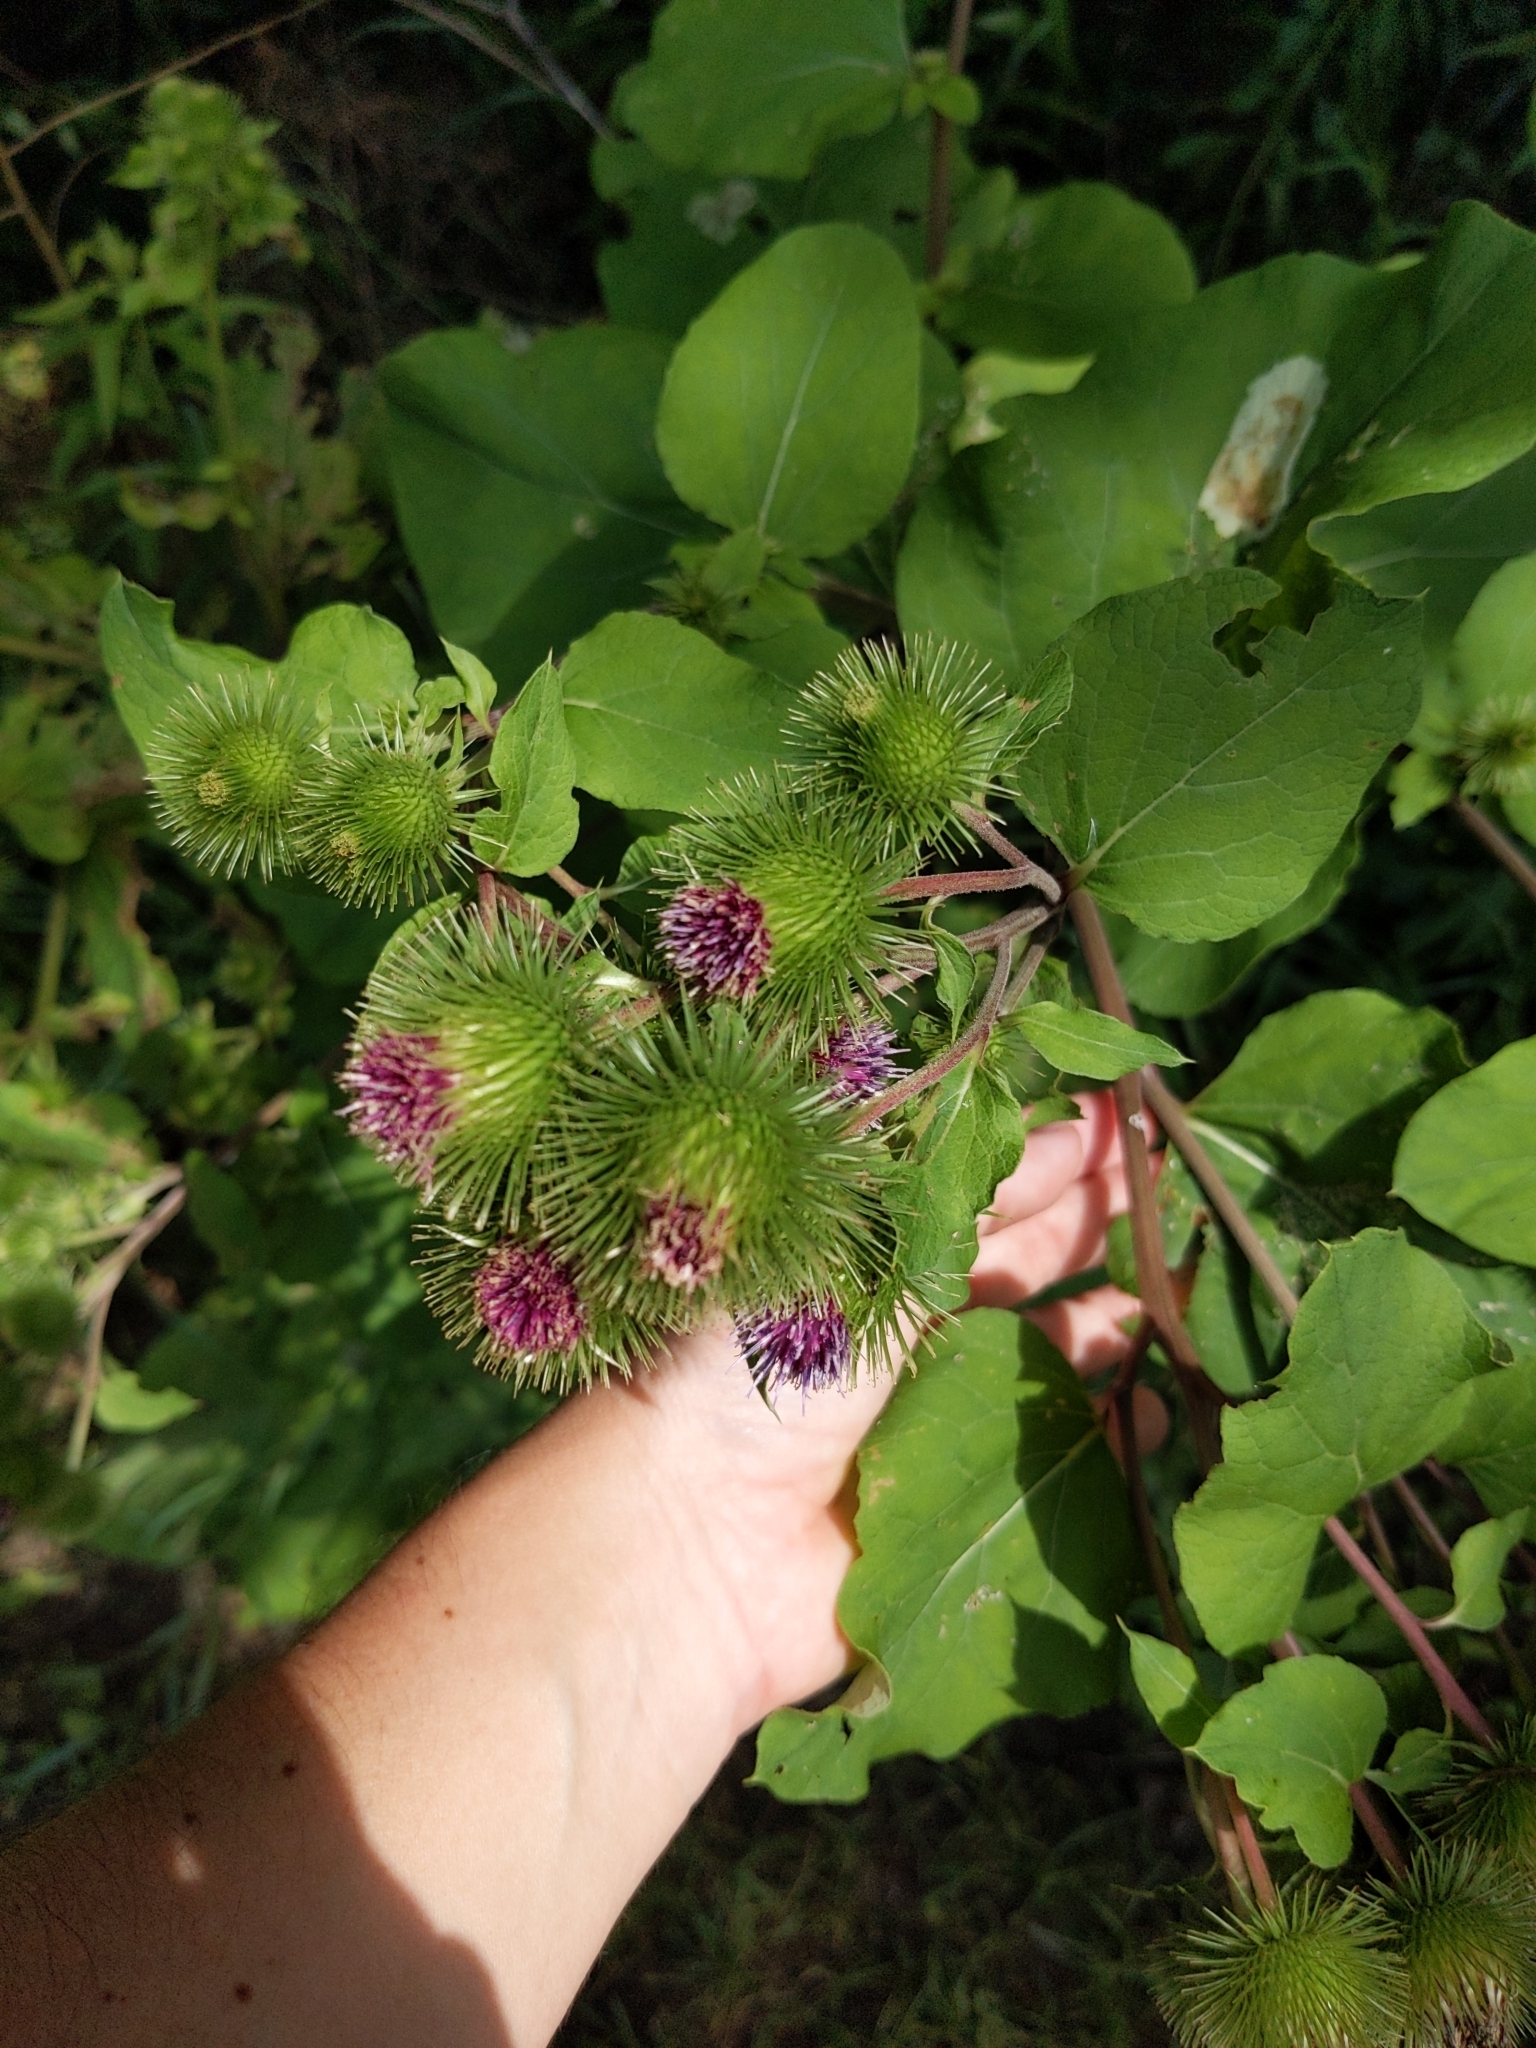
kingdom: Plantae
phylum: Tracheophyta
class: Magnoliopsida
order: Asterales
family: Asteraceae
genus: Arctium
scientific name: Arctium lappa
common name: Greater burdock
